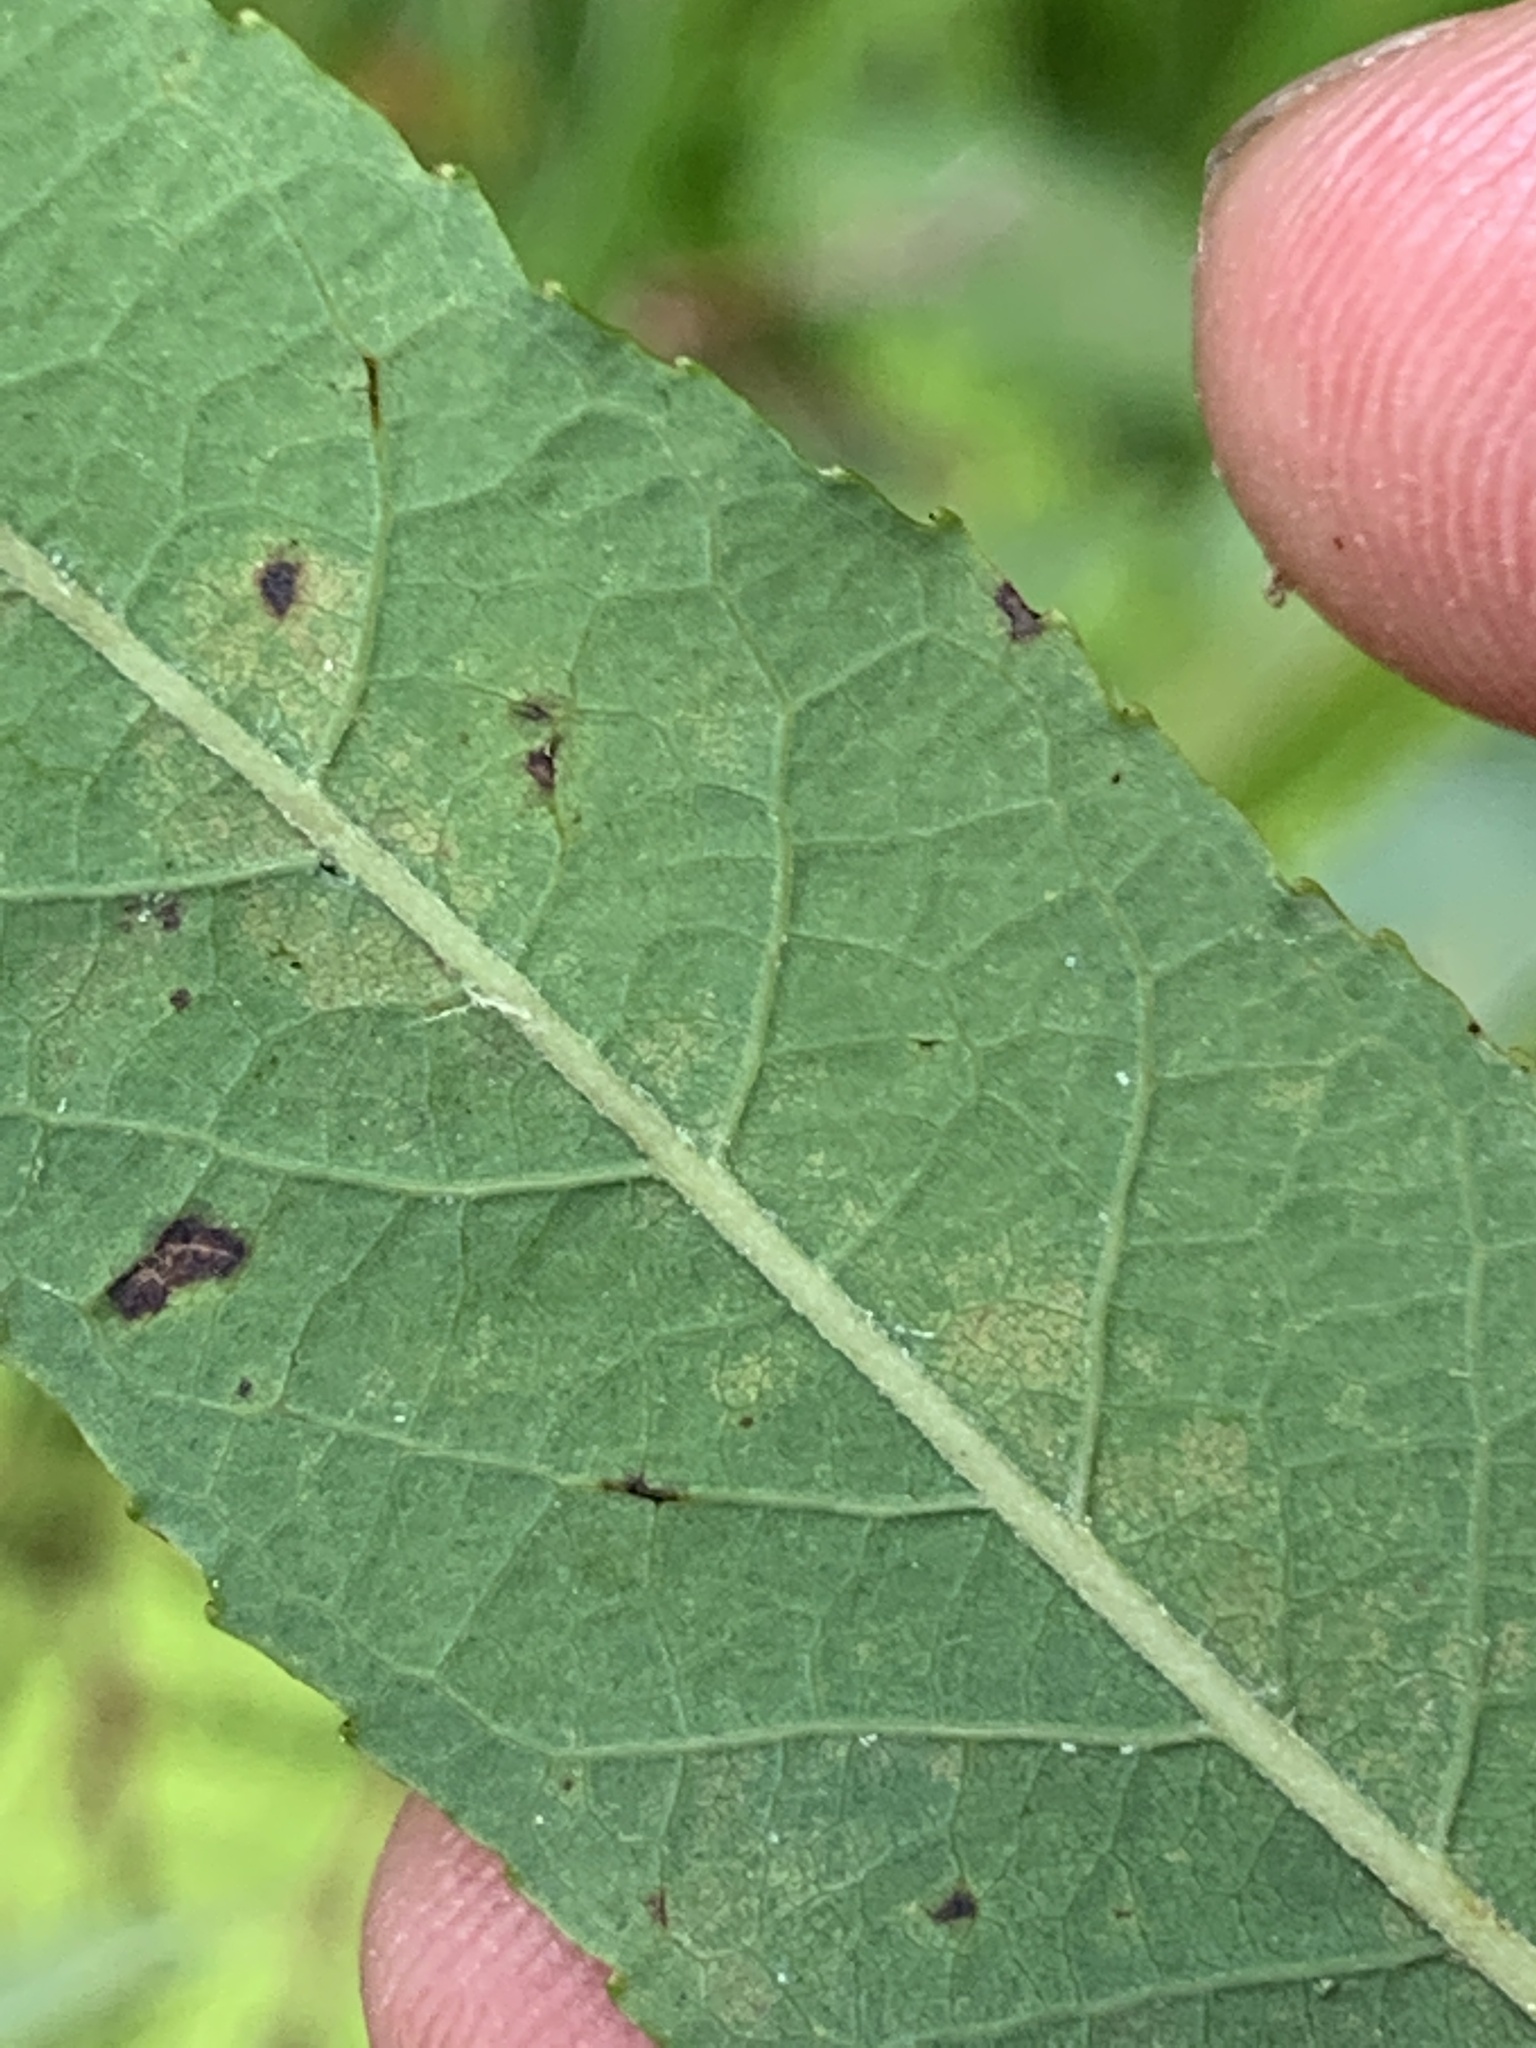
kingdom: Plantae
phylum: Tracheophyta
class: Magnoliopsida
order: Malpighiales
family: Salicaceae
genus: Salix
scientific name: Salix eriocephala
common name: Heart-leaved willow
